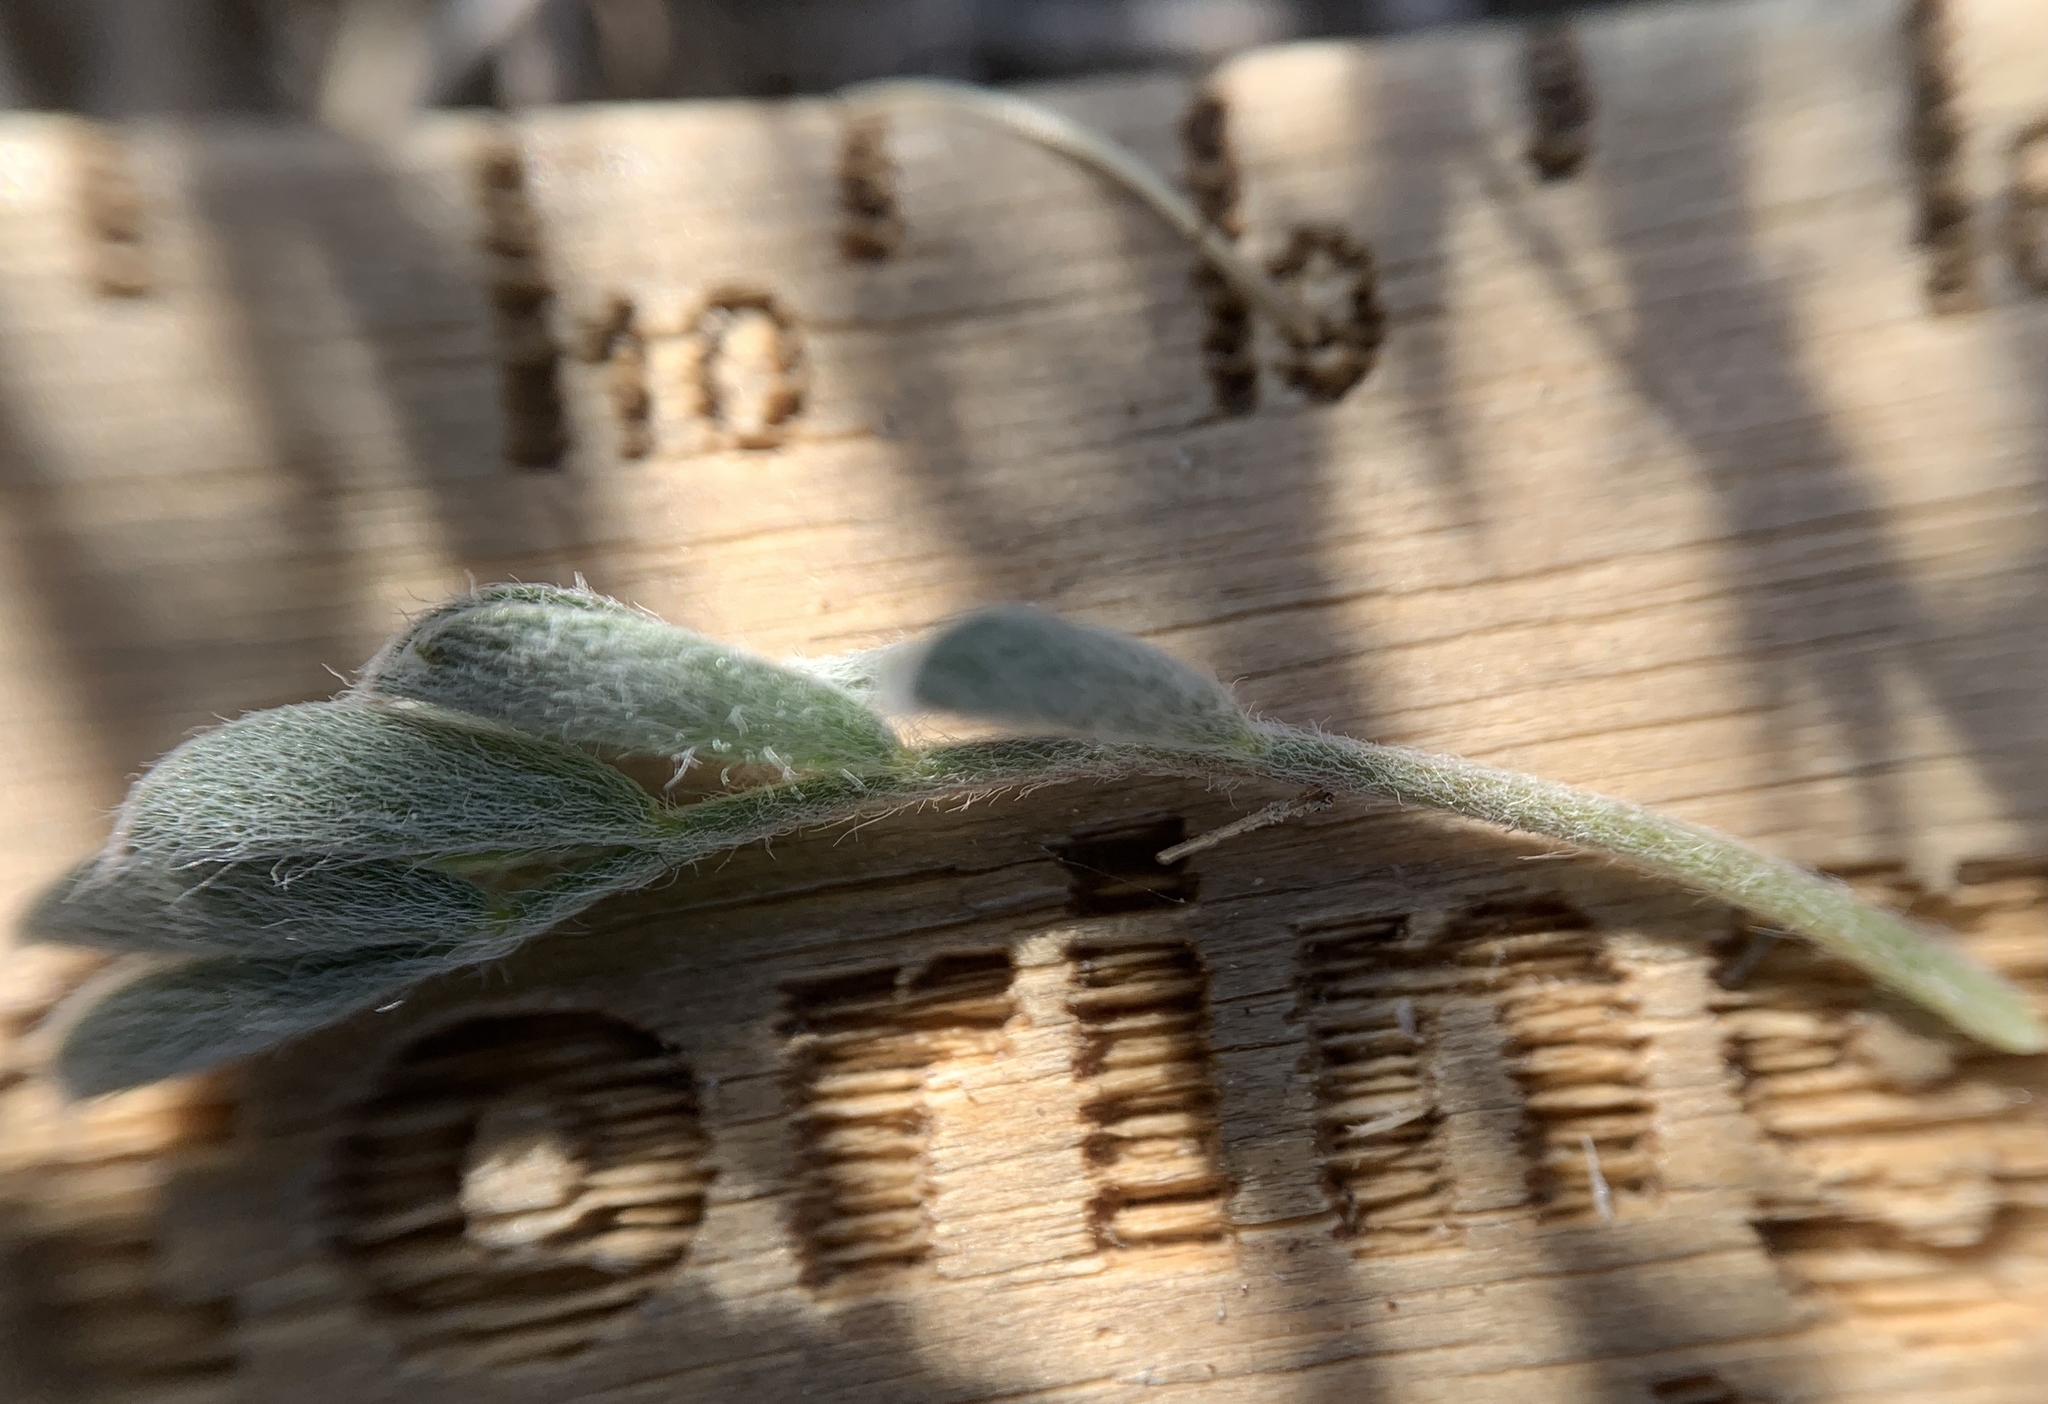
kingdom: Plantae
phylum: Tracheophyta
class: Magnoliopsida
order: Fabales
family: Fabaceae
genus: Astragalus
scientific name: Astragalus purshii
